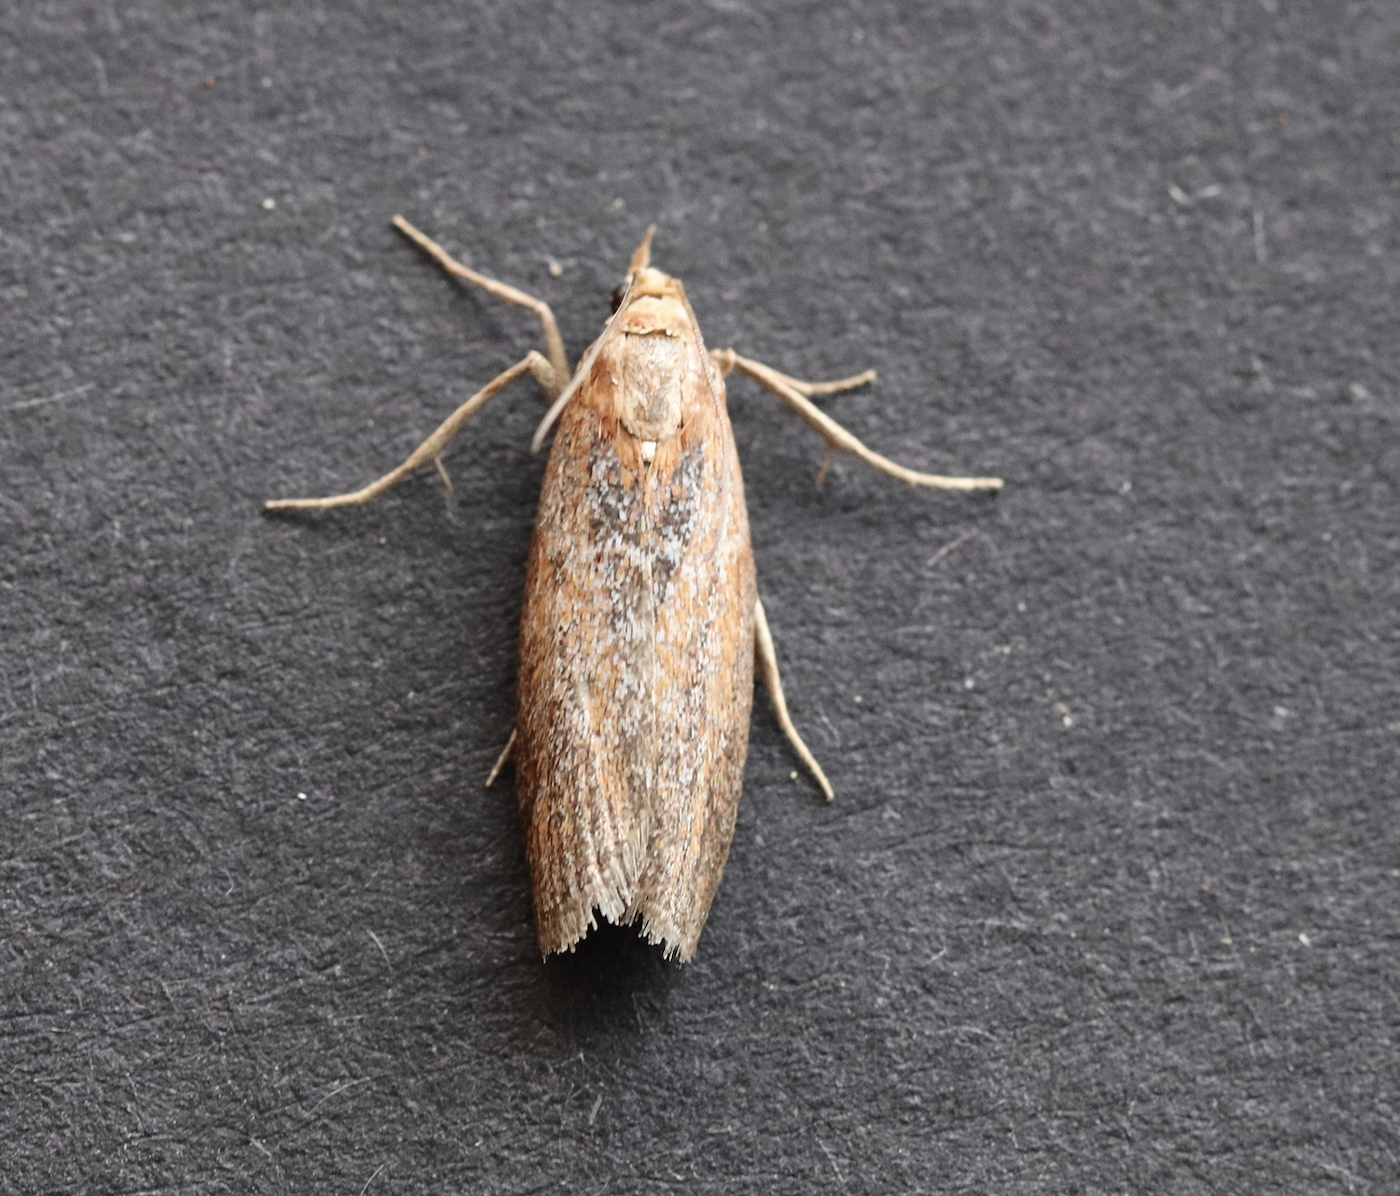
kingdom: Animalia
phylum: Arthropoda
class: Insecta
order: Lepidoptera
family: Pyralidae
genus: Selagia
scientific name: Selagia spadicella
